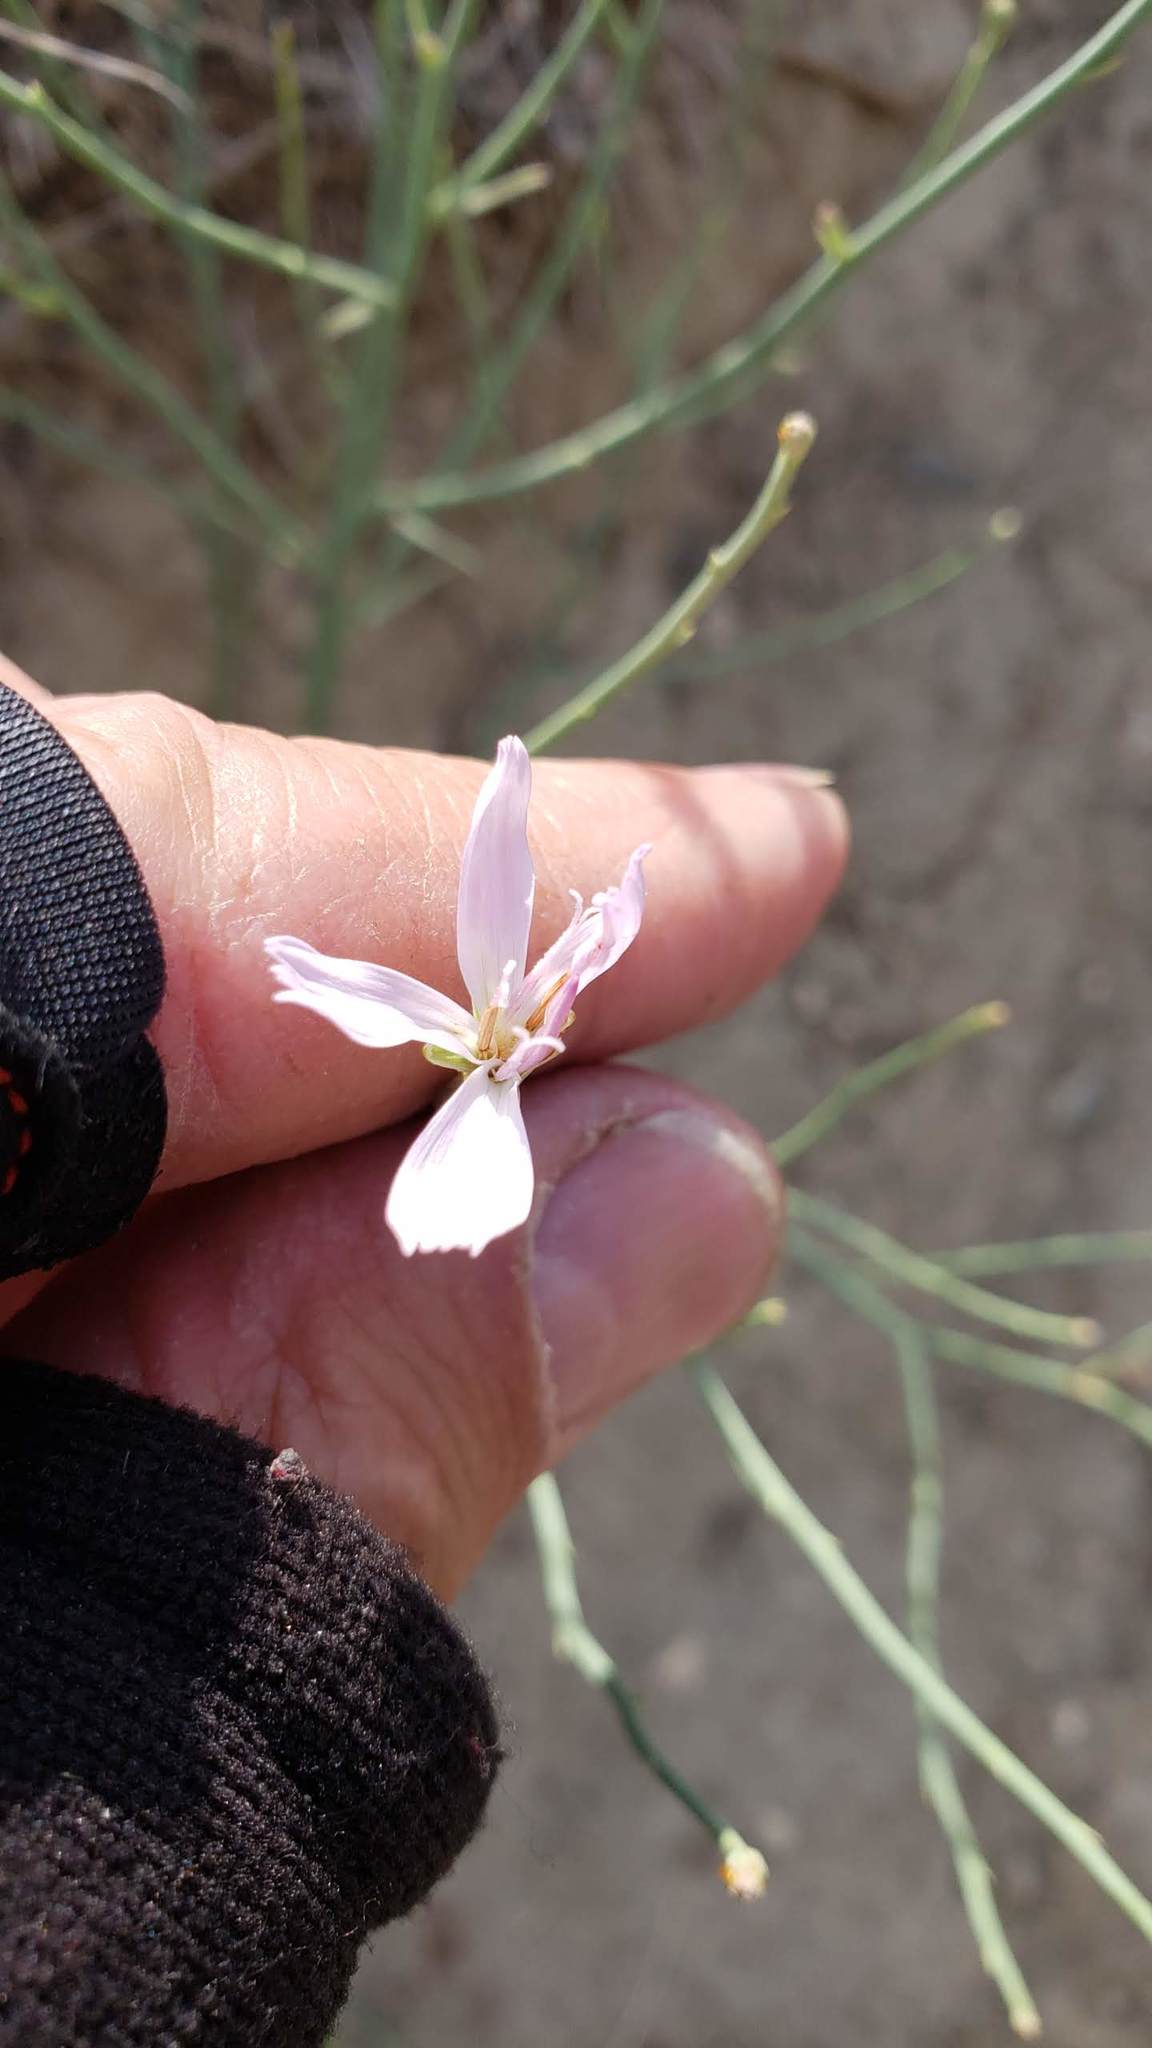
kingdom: Plantae
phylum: Tracheophyta
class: Magnoliopsida
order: Asterales
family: Asteraceae
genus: Lygodesmia
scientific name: Lygodesmia juncea
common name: Common skeletonweed
